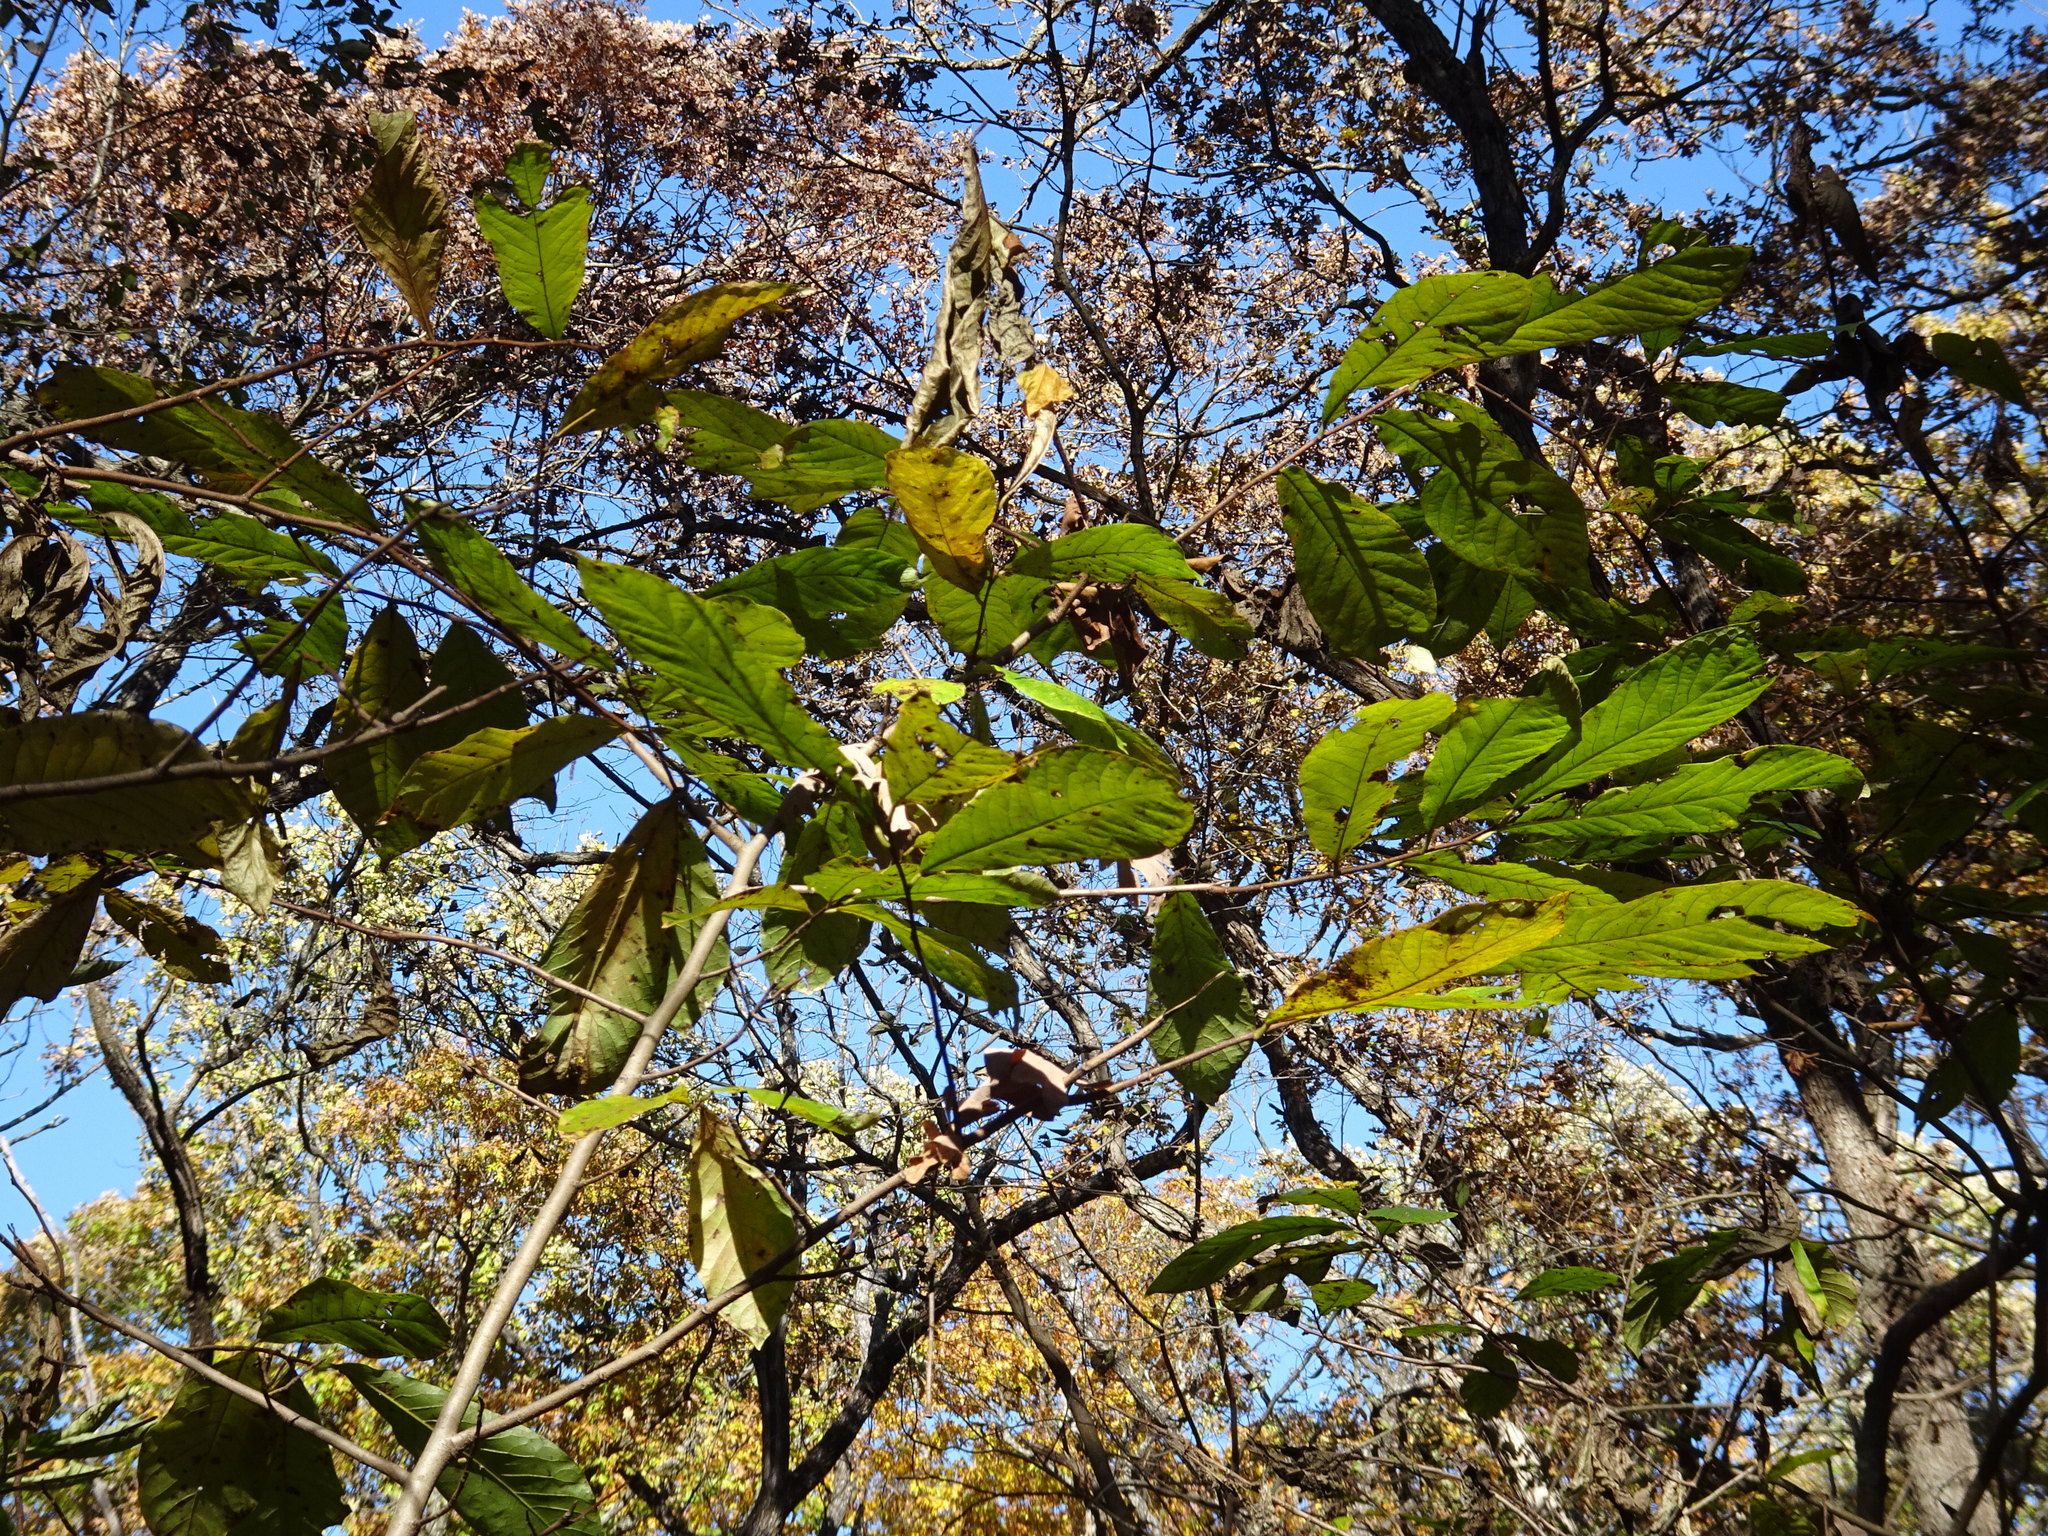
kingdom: Plantae
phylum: Tracheophyta
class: Magnoliopsida
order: Magnoliales
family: Annonaceae
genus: Asimina
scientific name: Asimina triloba
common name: Dog-banana
